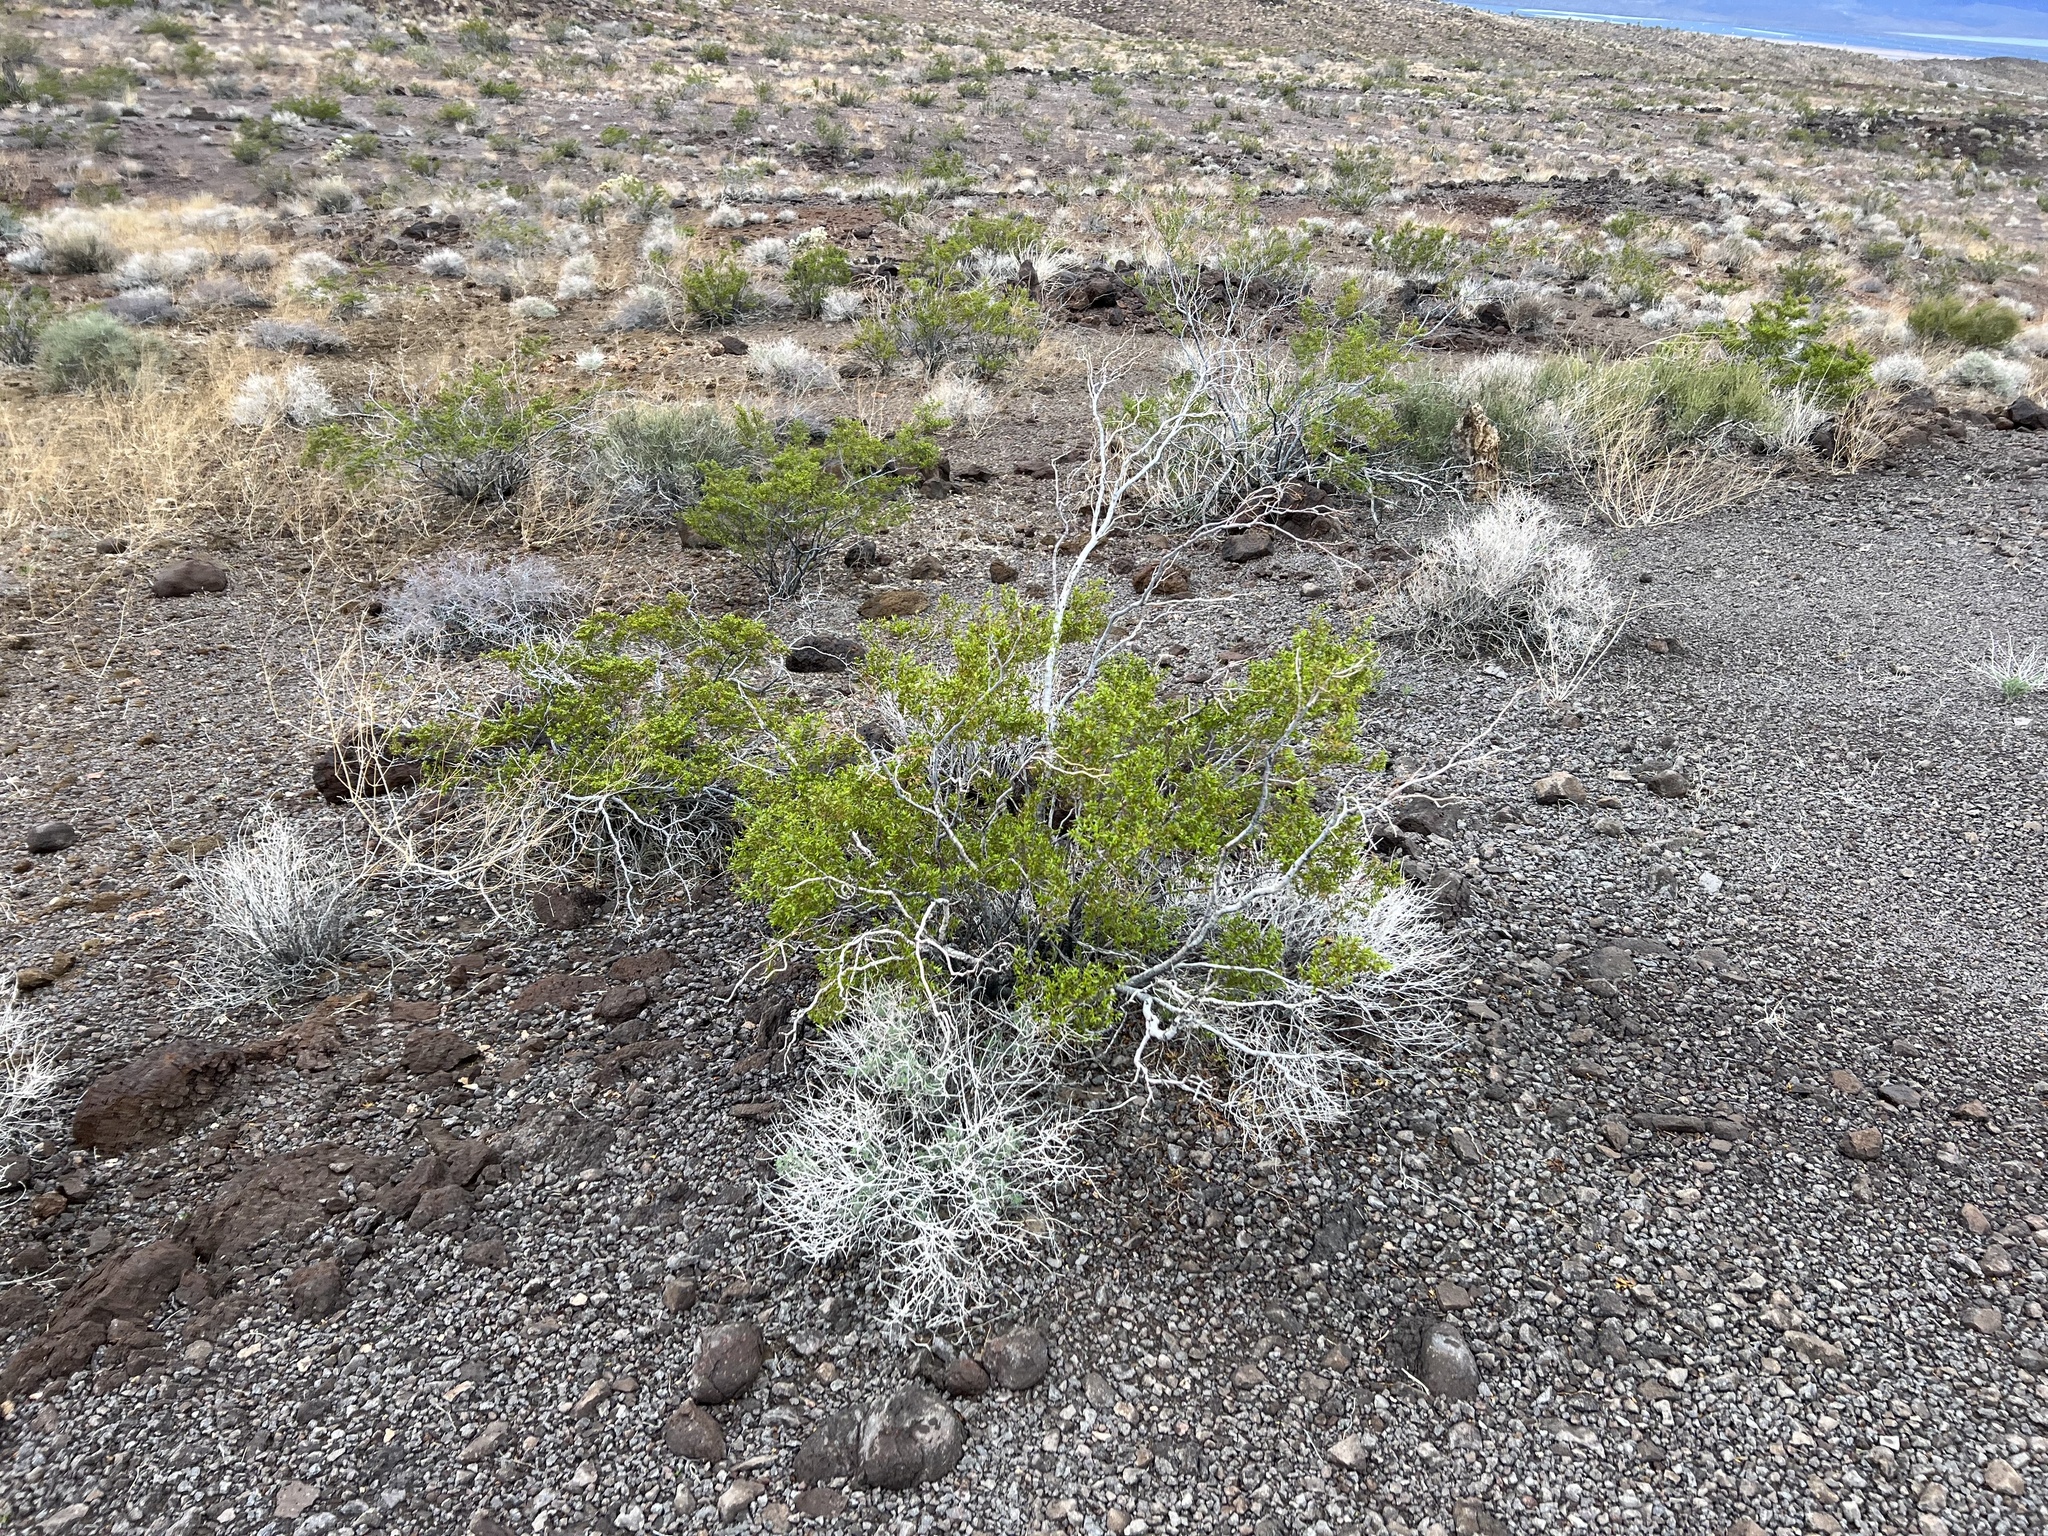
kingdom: Plantae
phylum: Tracheophyta
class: Magnoliopsida
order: Zygophyllales
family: Zygophyllaceae
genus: Larrea
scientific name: Larrea tridentata
